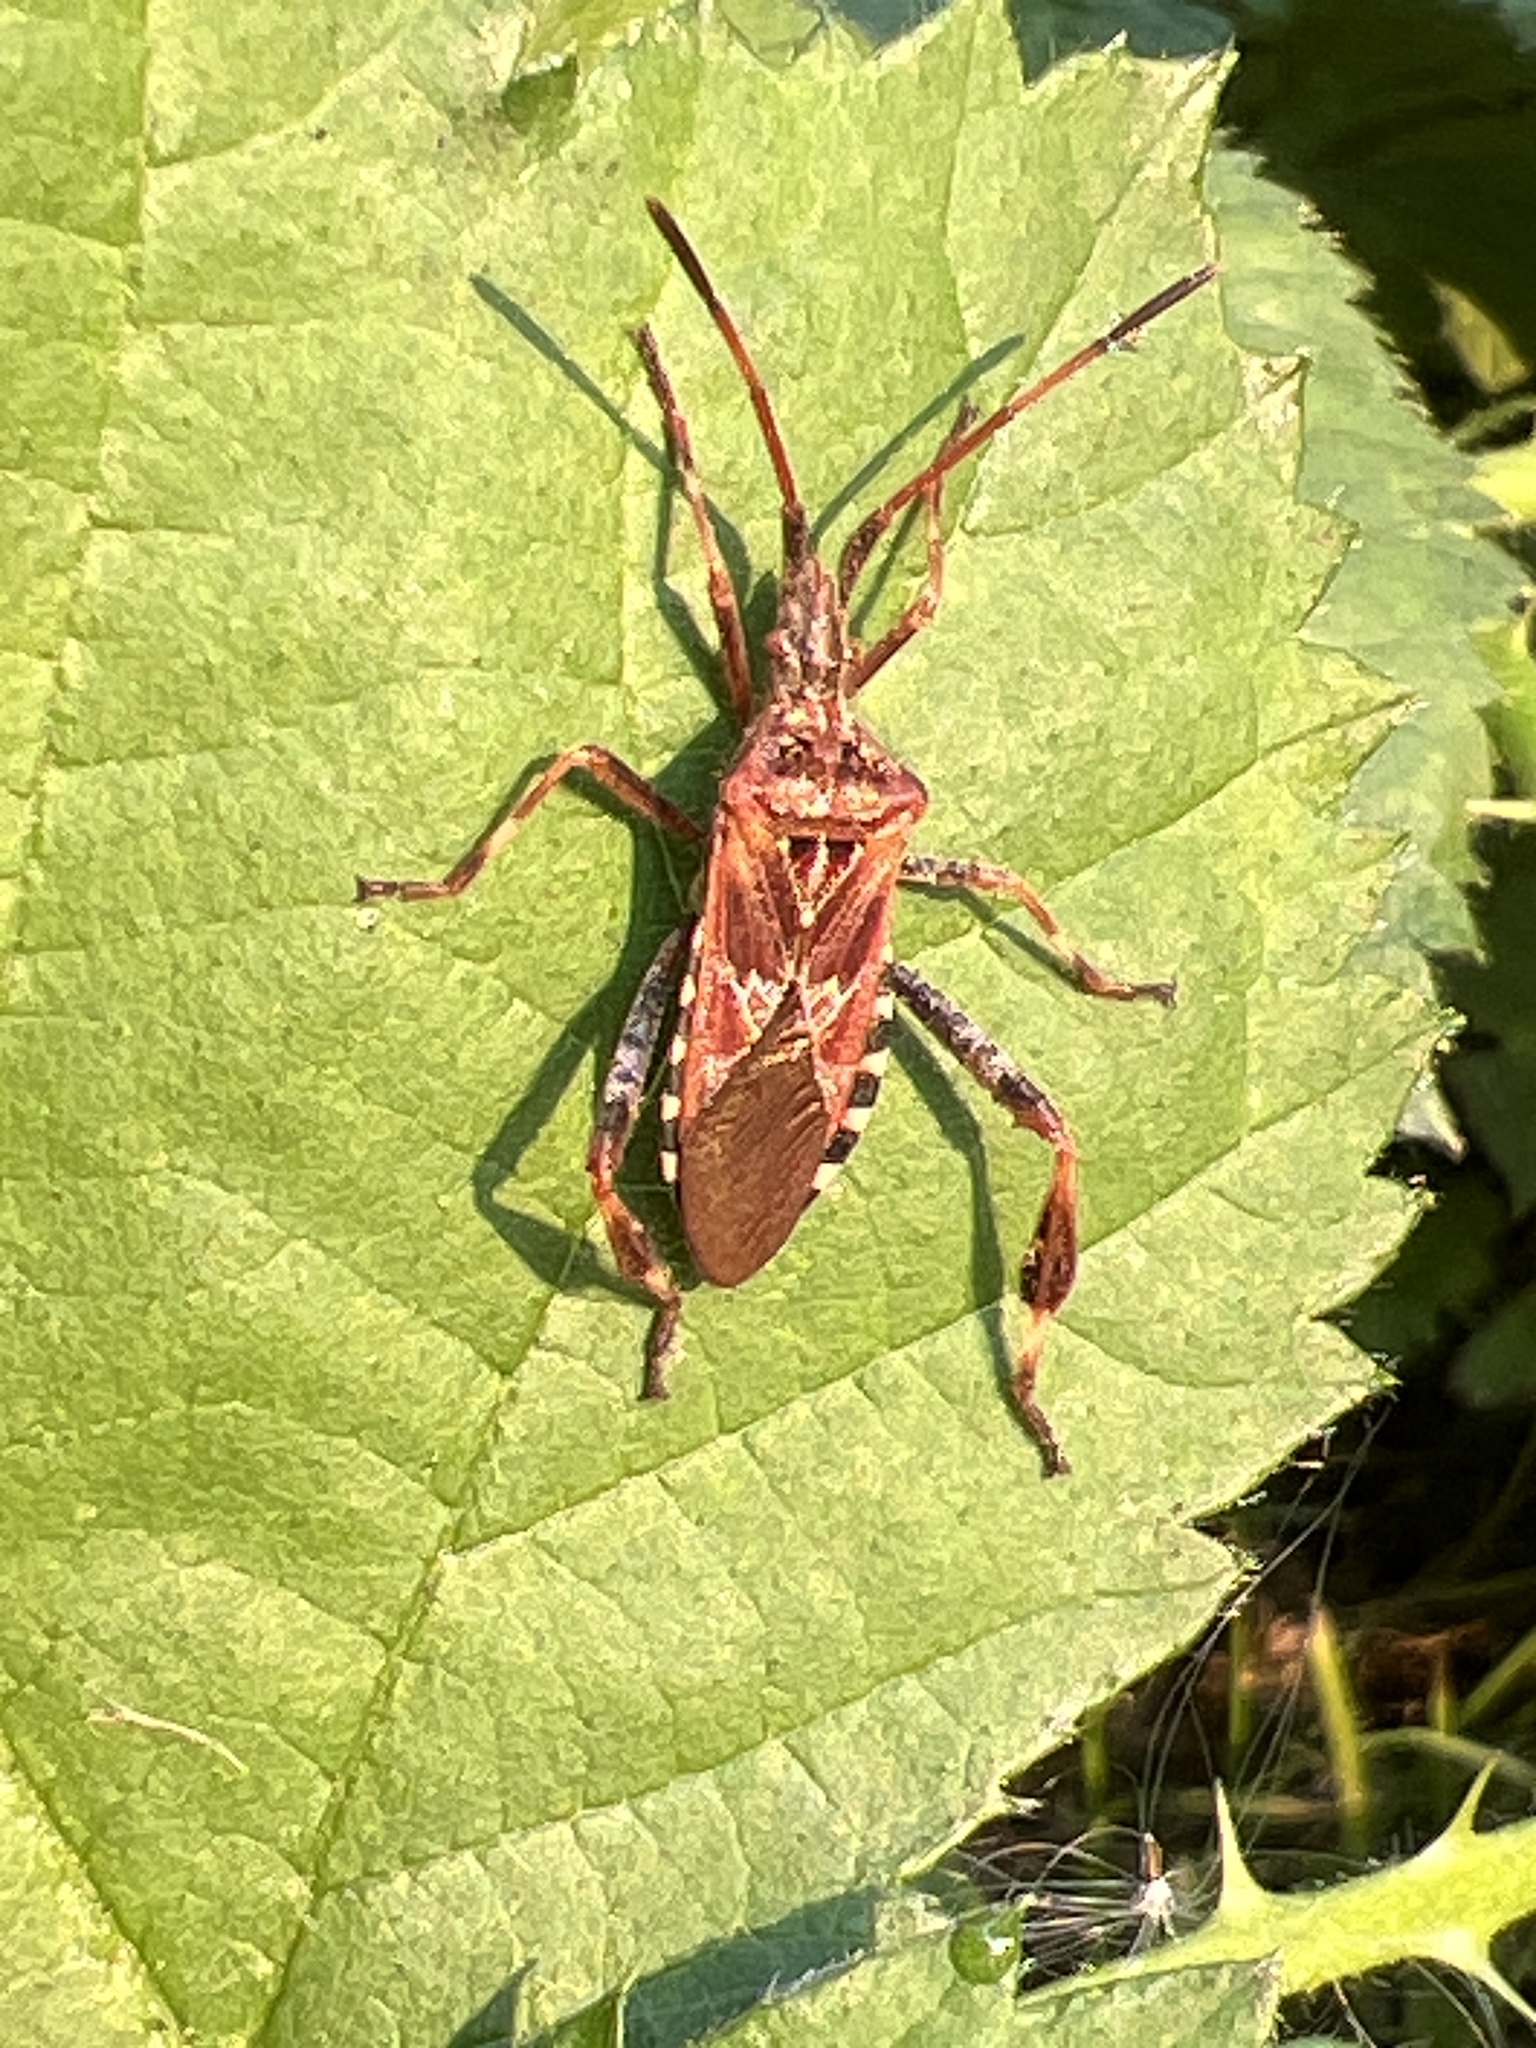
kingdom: Animalia
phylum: Arthropoda
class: Insecta
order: Hemiptera
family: Coreidae
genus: Leptoglossus
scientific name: Leptoglossus occidentalis
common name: Western conifer-seed bug
